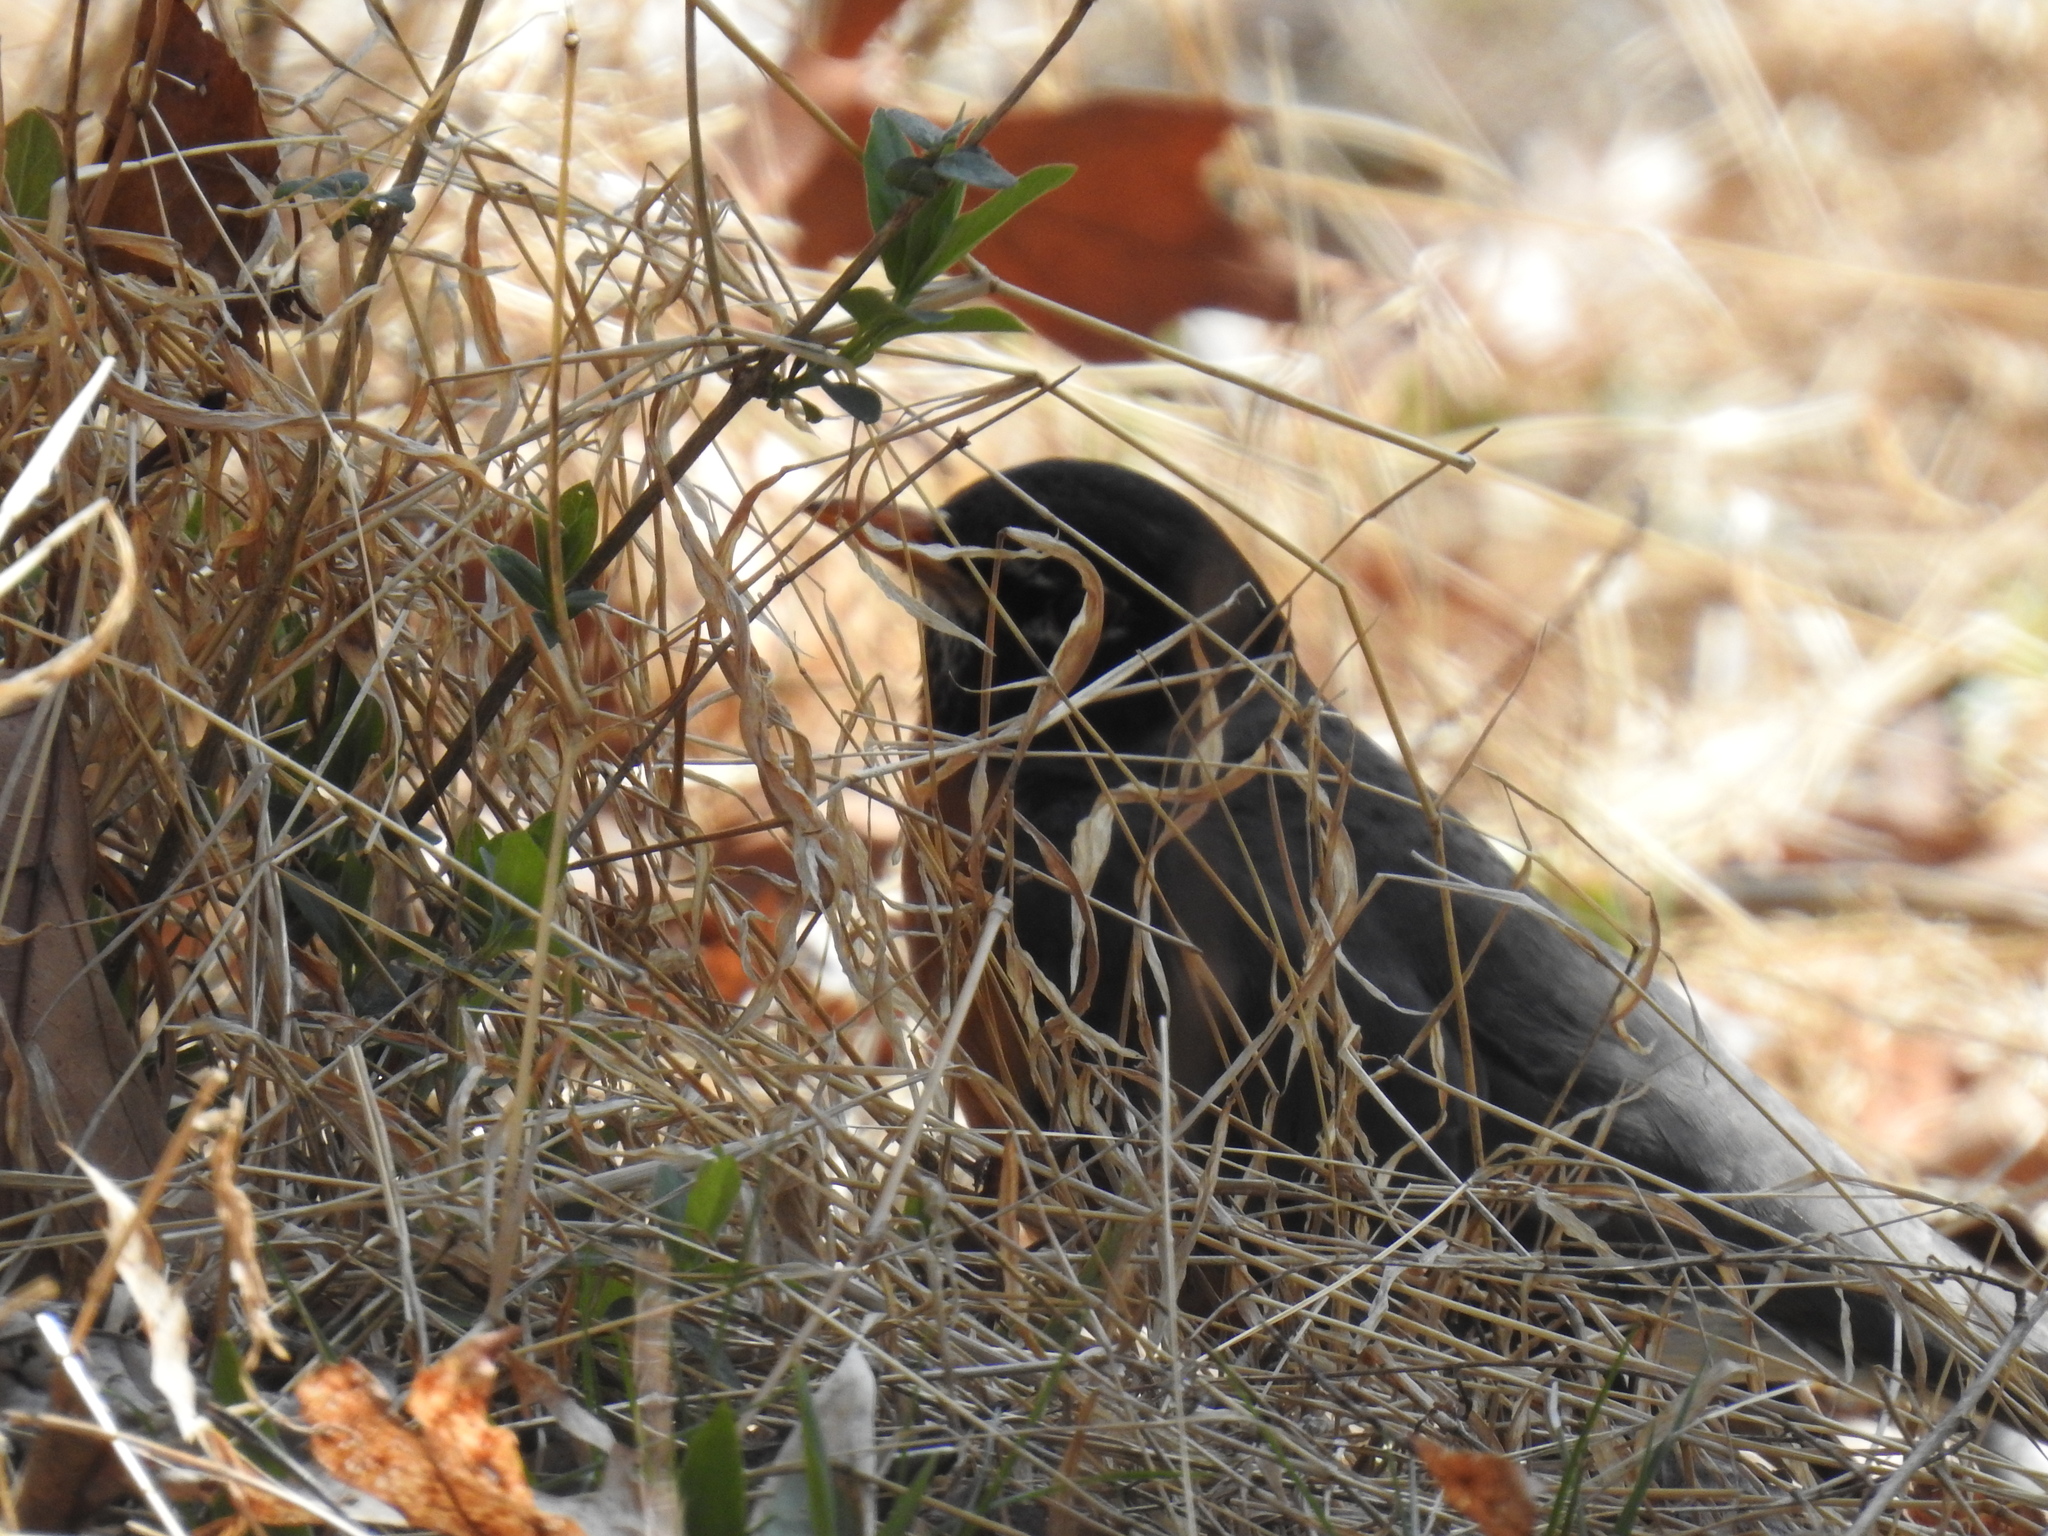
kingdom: Animalia
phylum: Chordata
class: Aves
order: Passeriformes
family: Turdidae
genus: Turdus
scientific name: Turdus migratorius
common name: American robin
